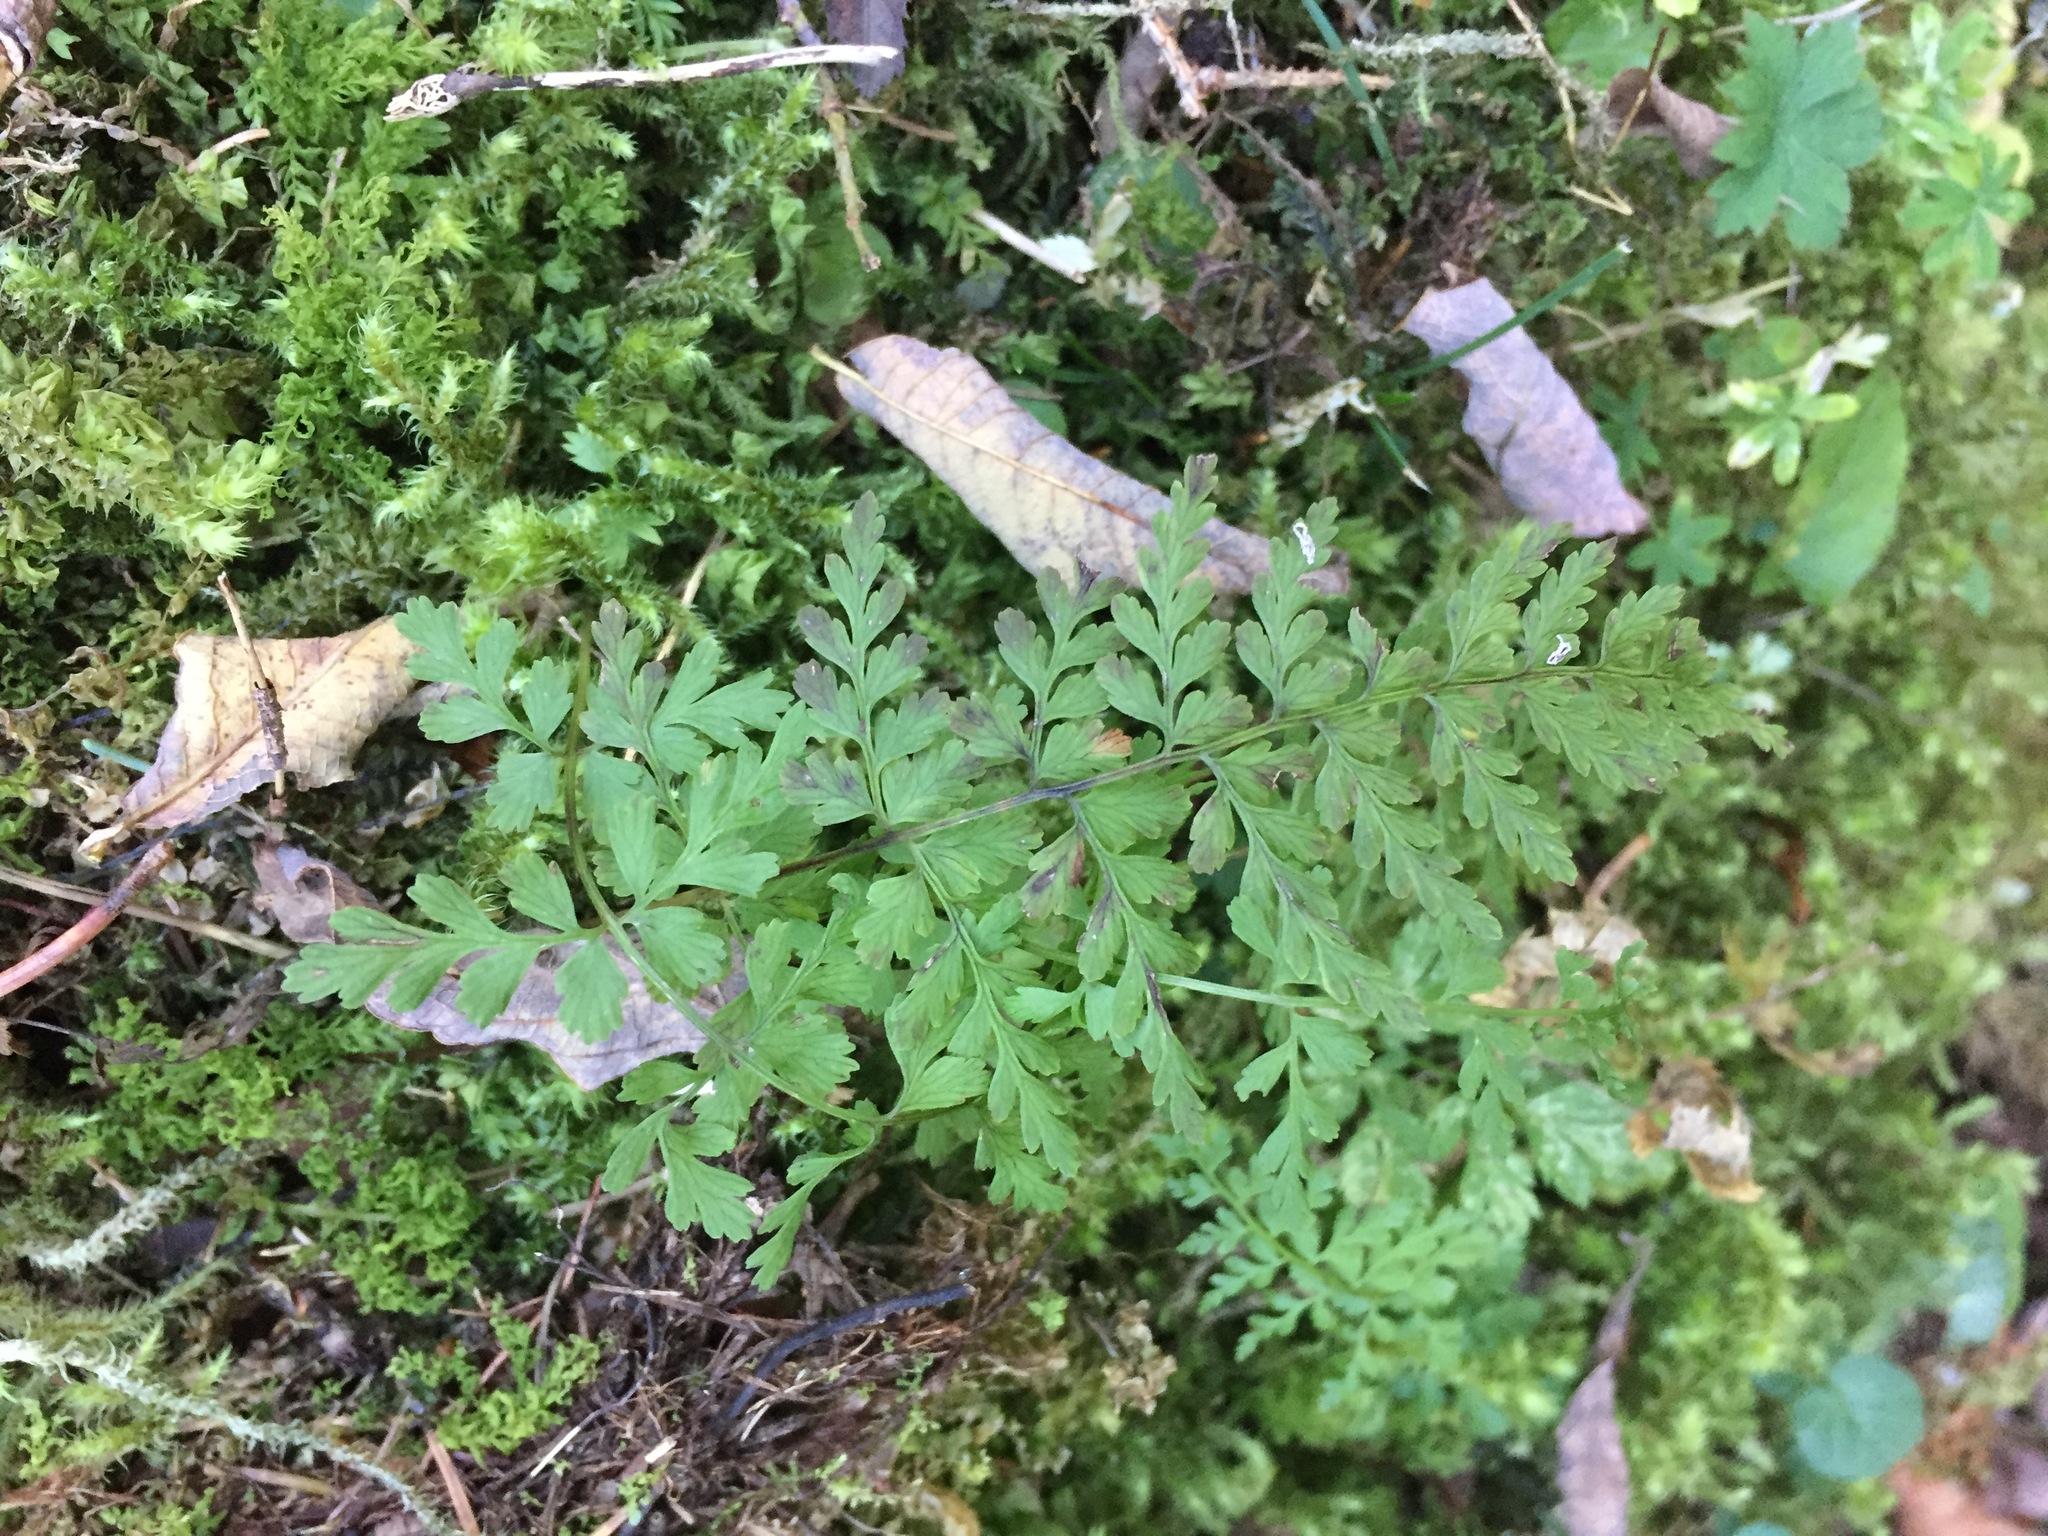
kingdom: Plantae
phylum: Tracheophyta
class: Polypodiopsida
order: Polypodiales
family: Cystopteridaceae
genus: Cystopteris
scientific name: Cystopteris fragilis
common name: Brittle bladder fern
